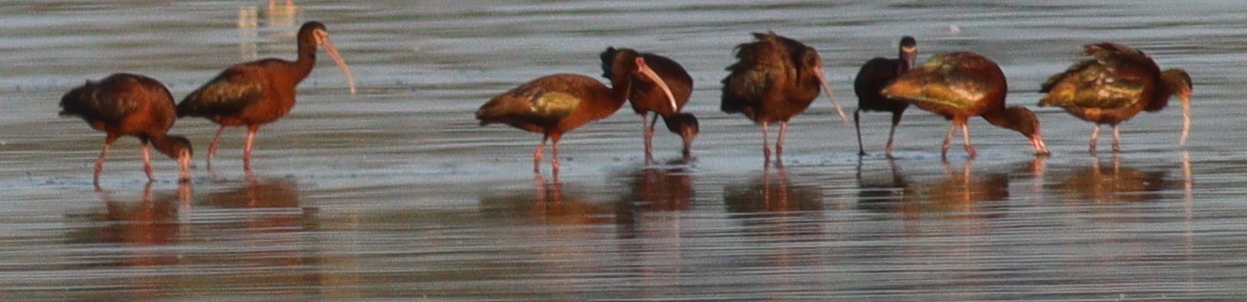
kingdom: Animalia
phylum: Chordata
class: Aves
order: Pelecaniformes
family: Threskiornithidae
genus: Plegadis
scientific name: Plegadis chihi
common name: White-faced ibis
